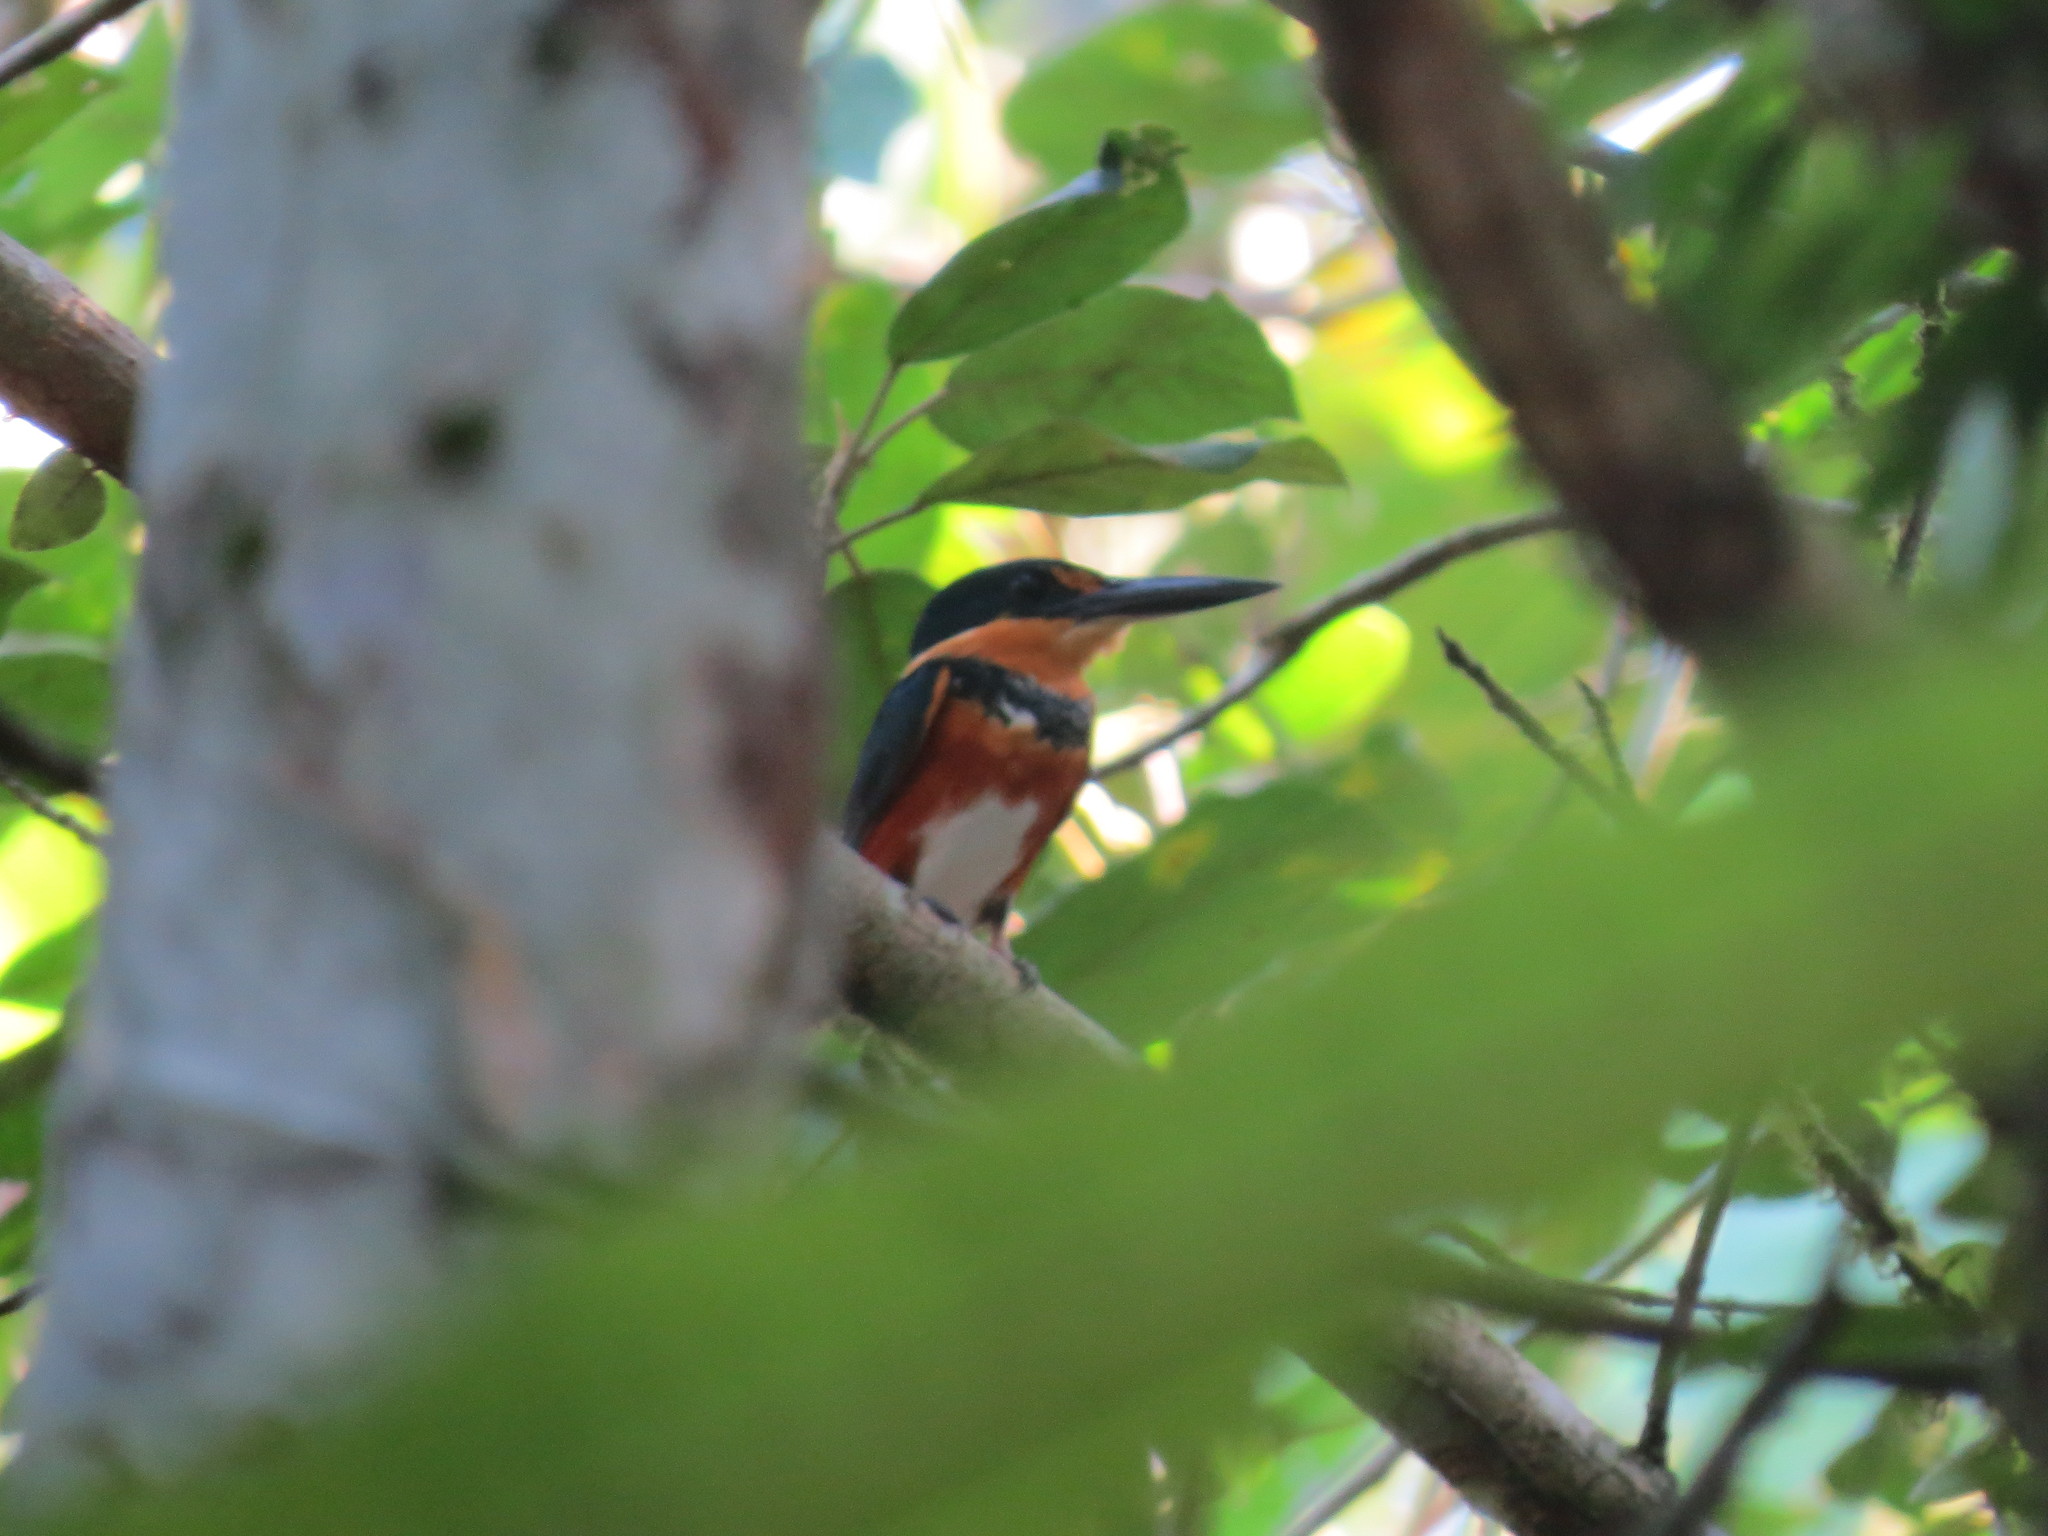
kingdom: Animalia
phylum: Chordata
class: Aves
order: Coraciiformes
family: Alcedinidae
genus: Chloroceryle
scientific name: Chloroceryle aenea
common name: American pygmy kingfisher
